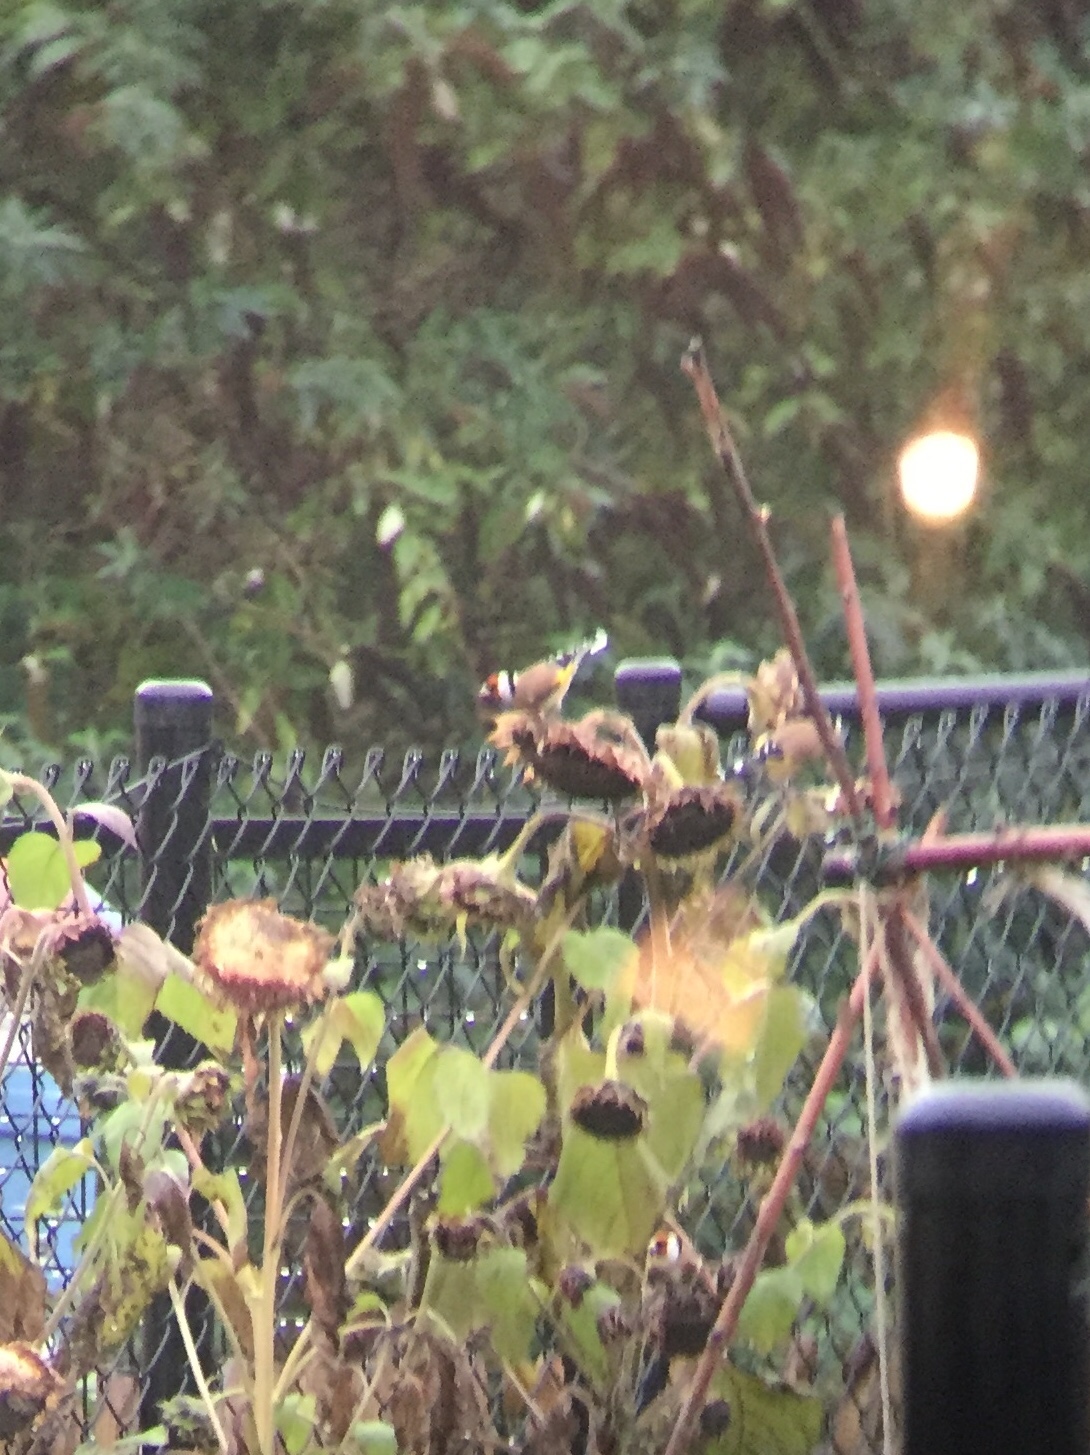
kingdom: Animalia
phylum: Chordata
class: Aves
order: Passeriformes
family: Fringillidae
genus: Carduelis
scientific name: Carduelis carduelis
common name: European goldfinch
